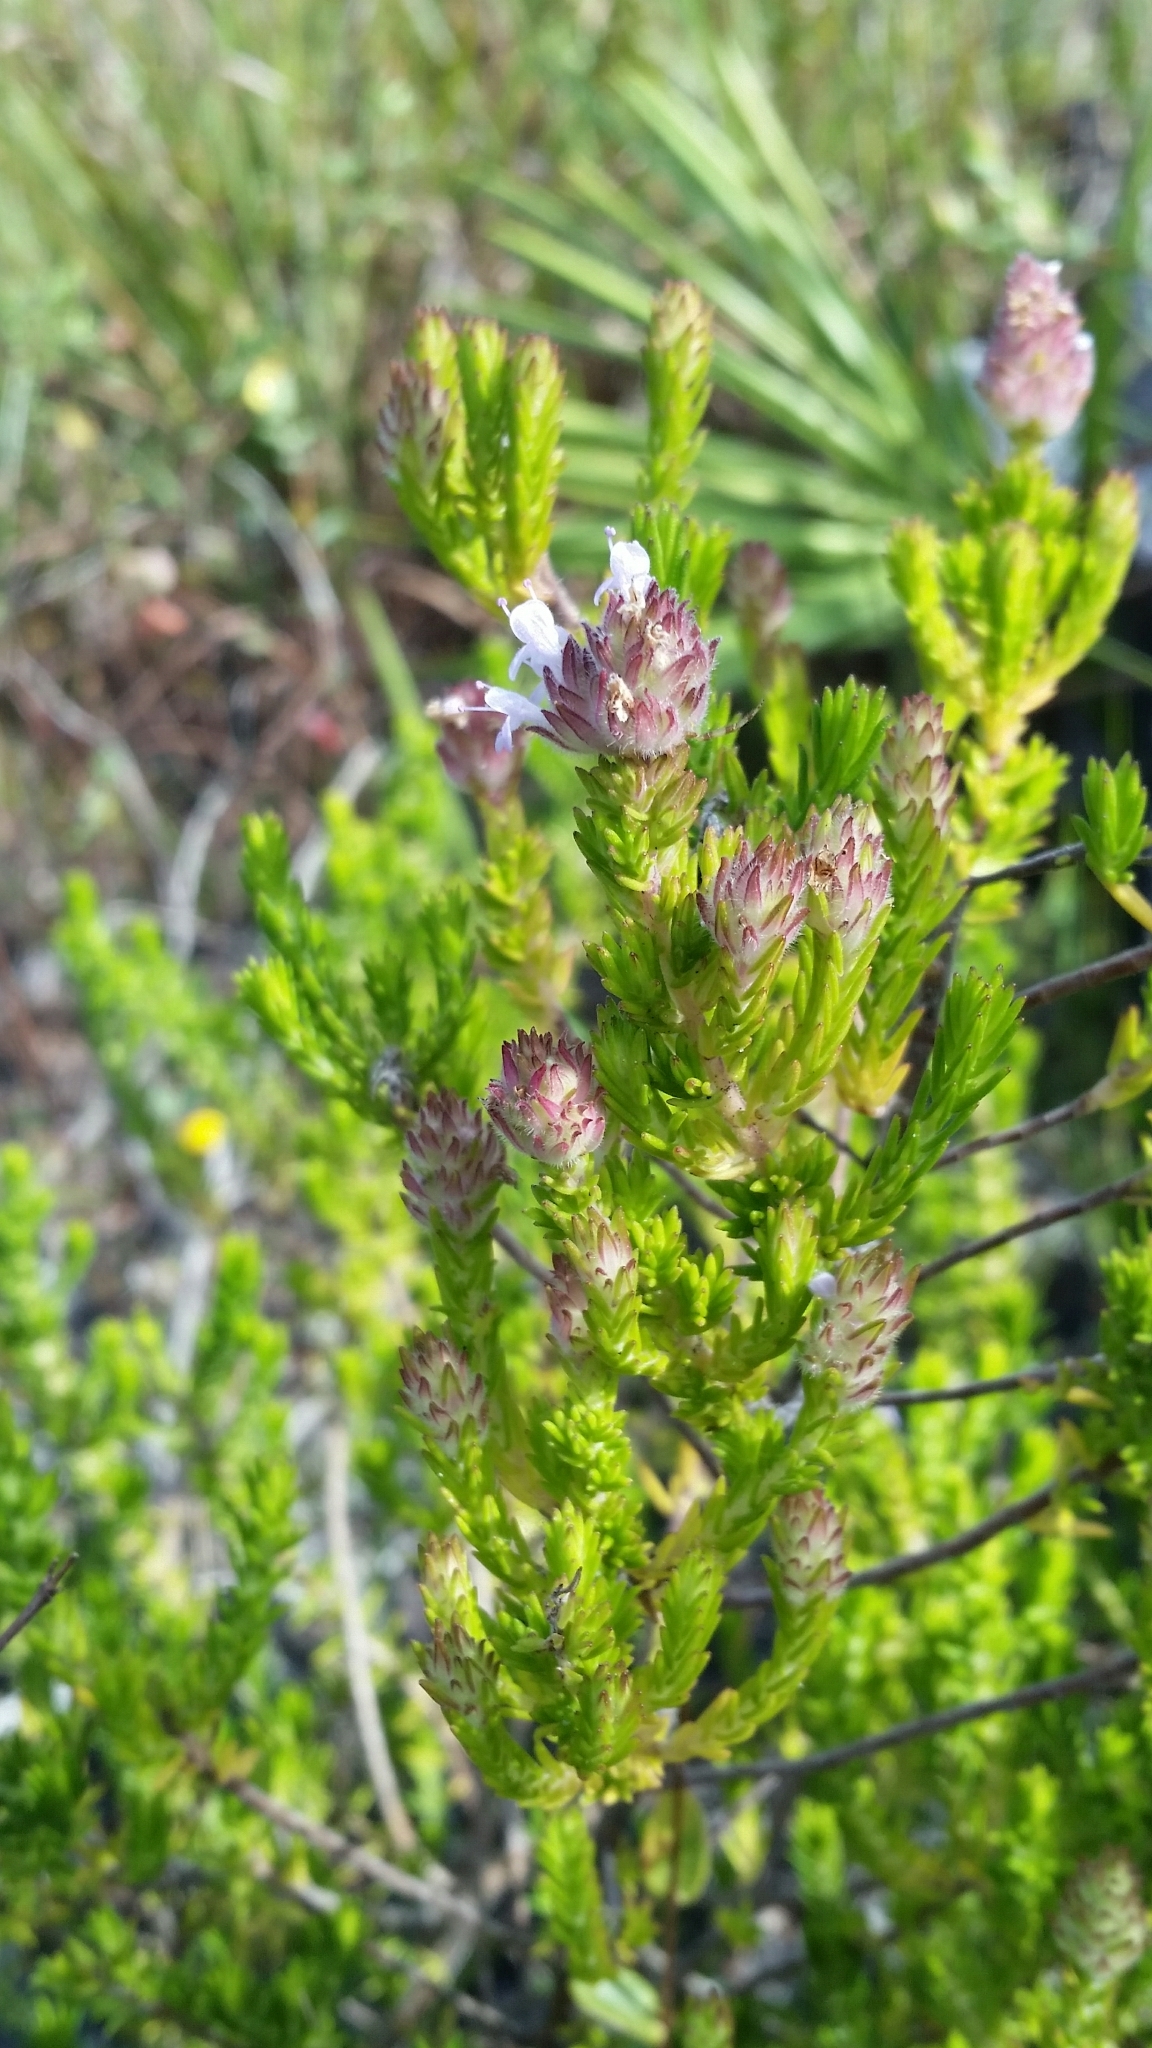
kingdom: Plantae
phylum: Tracheophyta
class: Magnoliopsida
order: Lamiales
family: Lamiaceae
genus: Piloblephis
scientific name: Piloblephis rigida
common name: Wild pennyroyal
